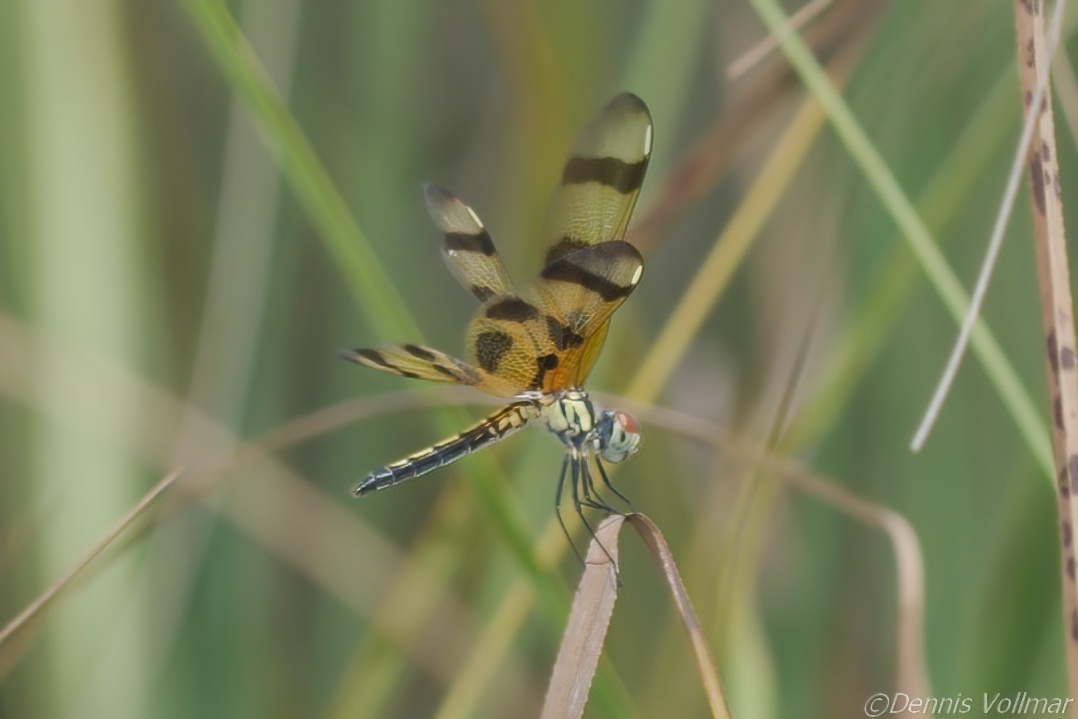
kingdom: Animalia
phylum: Arthropoda
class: Insecta
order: Odonata
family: Libellulidae
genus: Celithemis
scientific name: Celithemis eponina
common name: Halloween pennant
